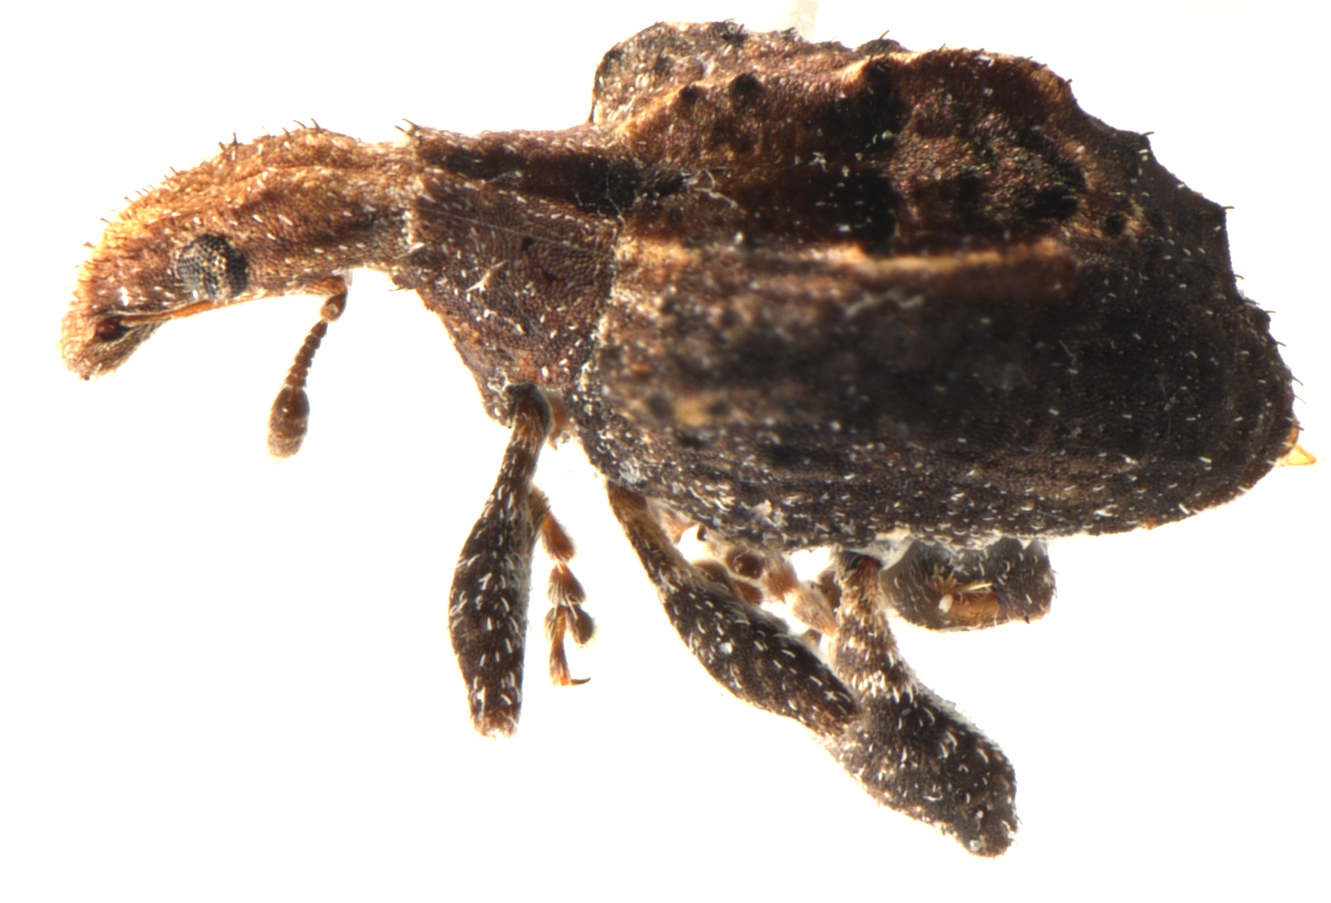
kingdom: Animalia
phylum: Arthropoda
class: Insecta
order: Coleoptera
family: Curculionidae
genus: Stephanorrhynchus
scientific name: Stephanorrhynchus crassus
